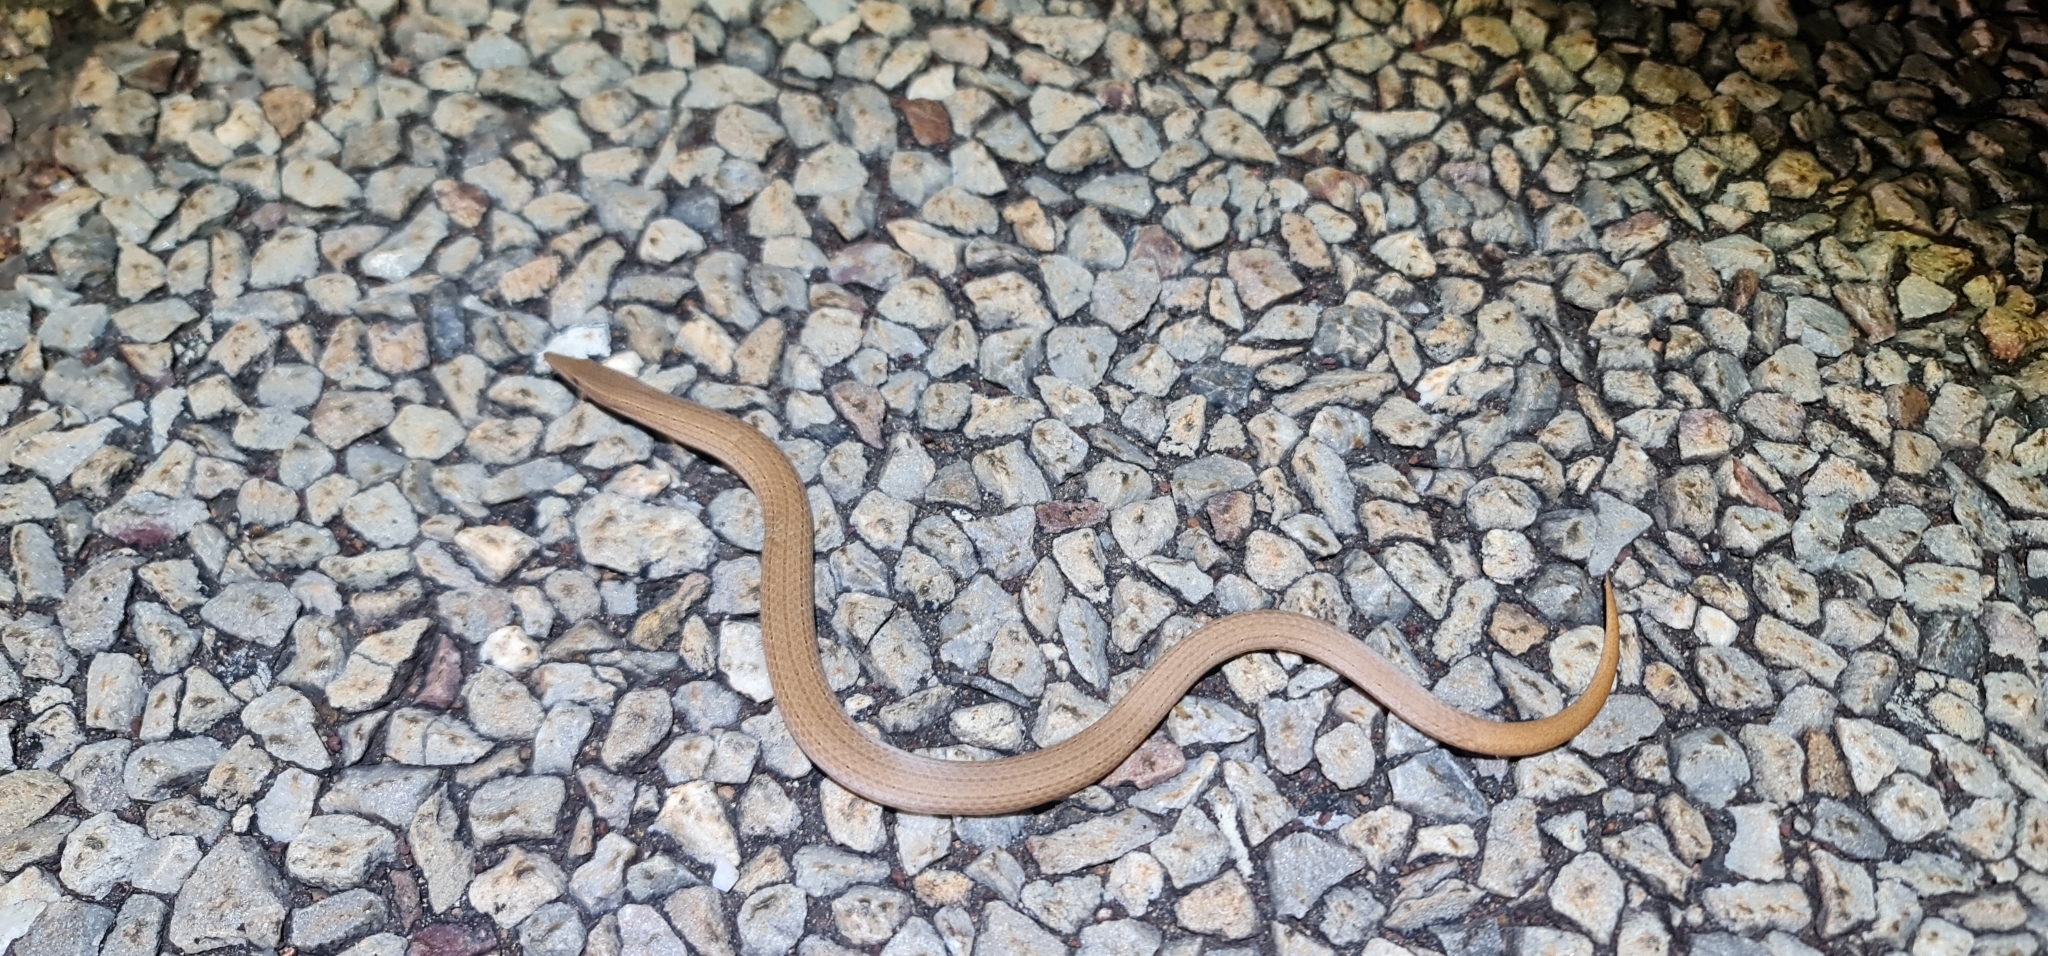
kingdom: Animalia
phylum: Chordata
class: Squamata
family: Pygopodidae
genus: Lialis
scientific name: Lialis burtonis
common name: Burton's legless lizard
